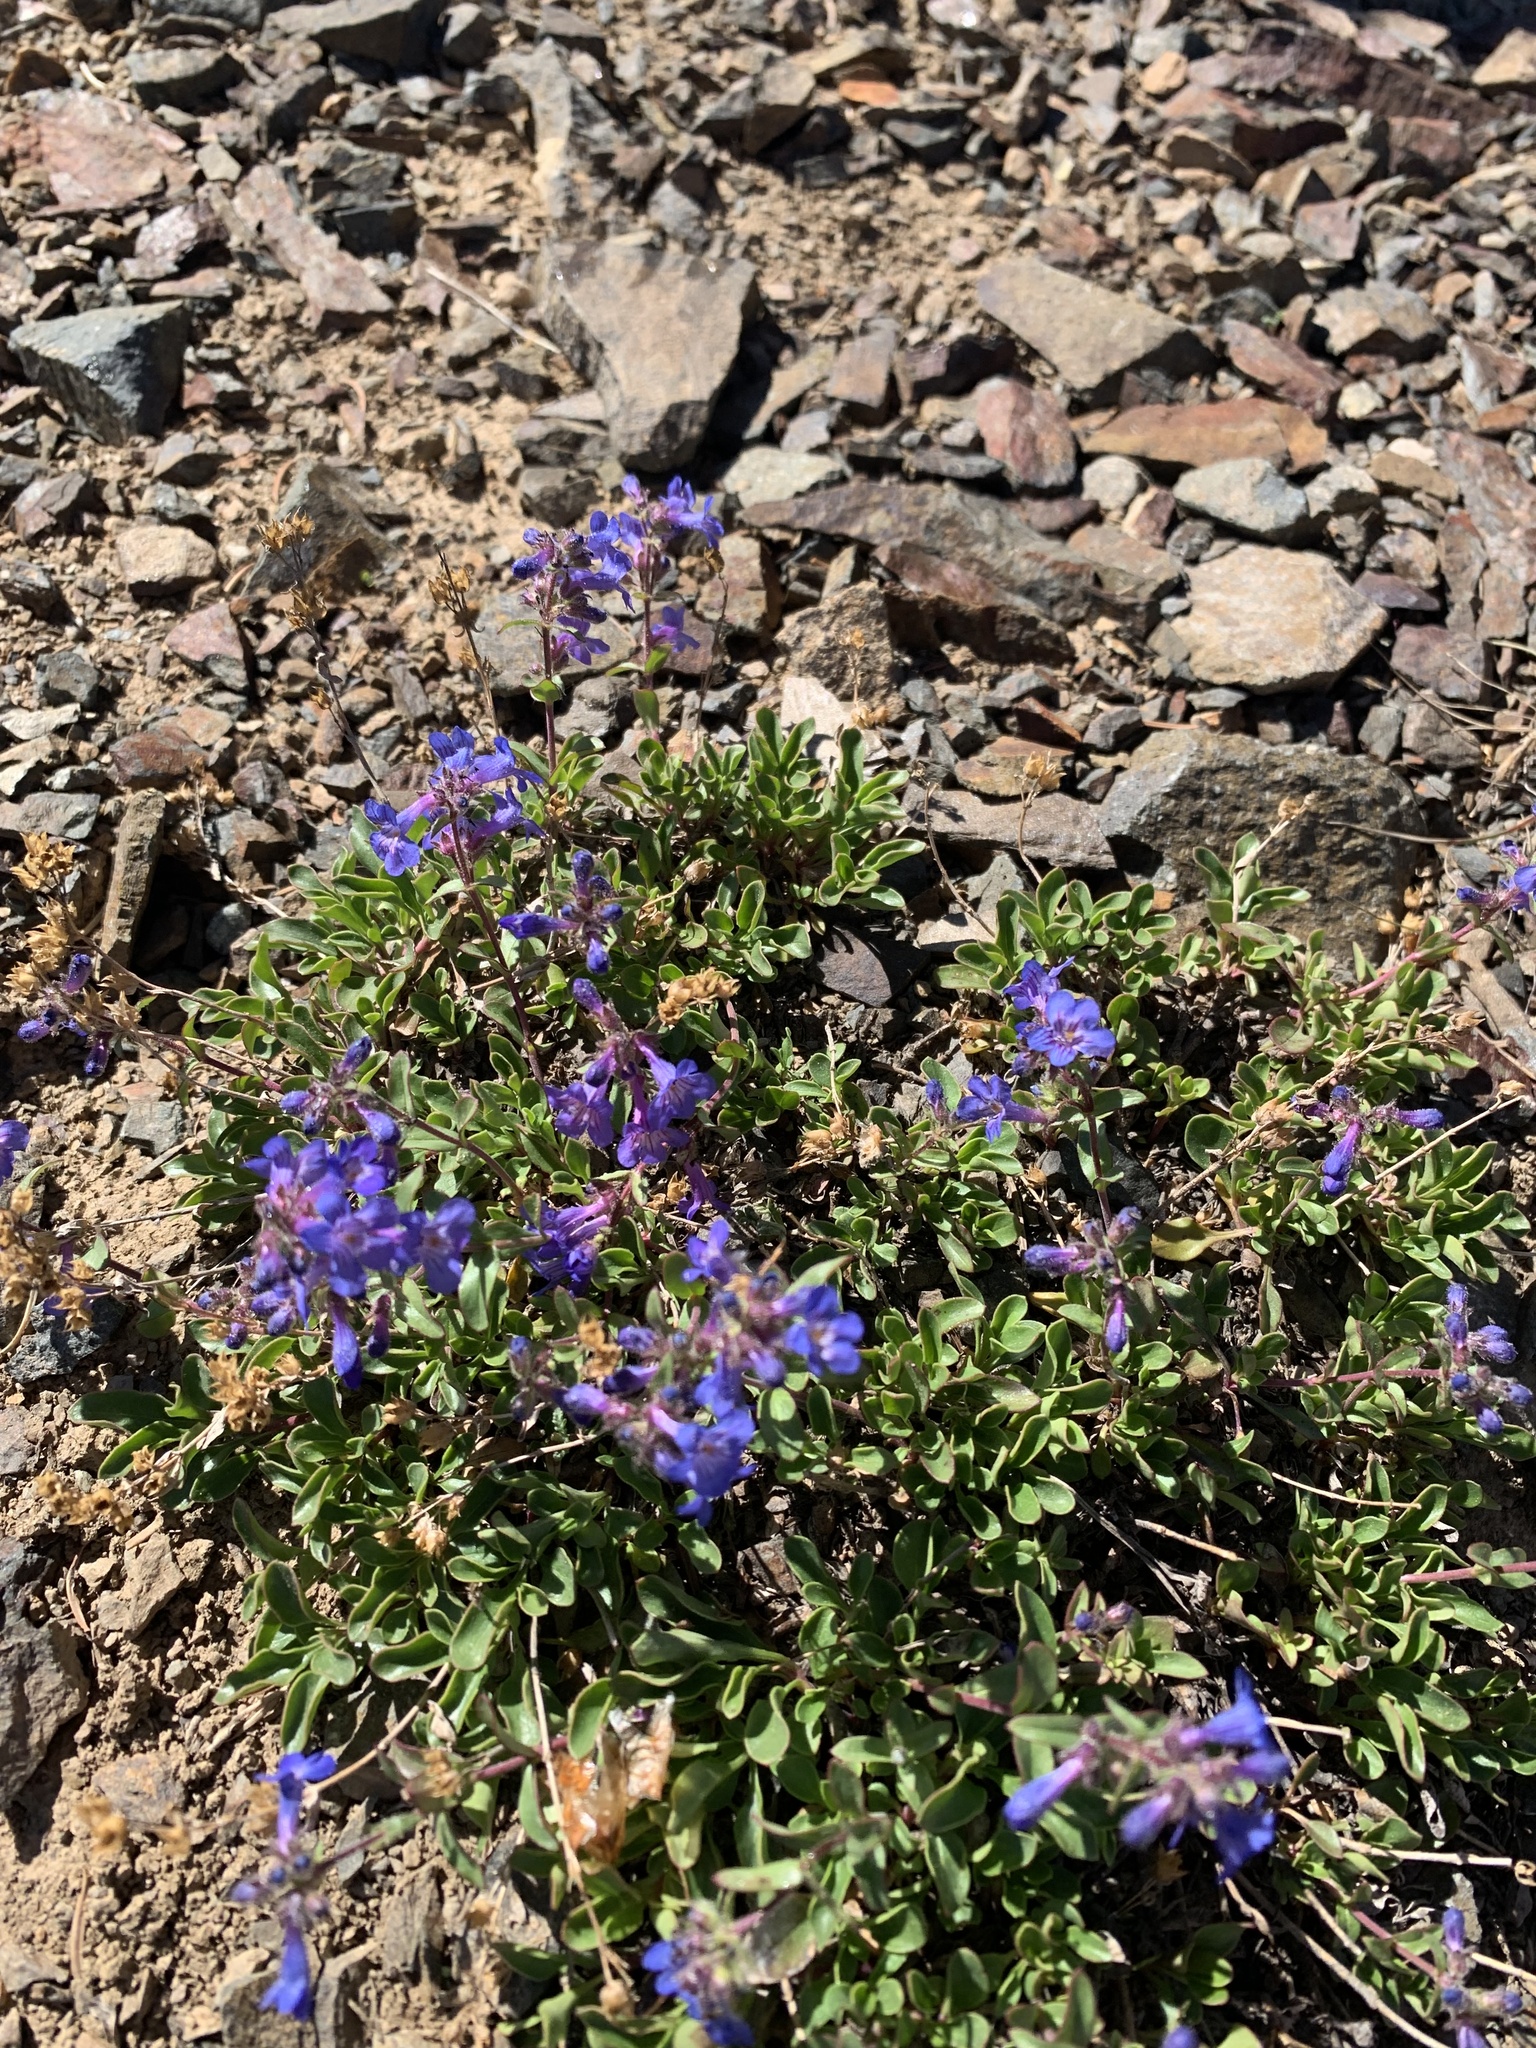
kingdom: Plantae
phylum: Tracheophyta
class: Magnoliopsida
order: Lamiales
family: Plantaginaceae
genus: Penstemon
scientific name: Penstemon humilis
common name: Low penstemon
